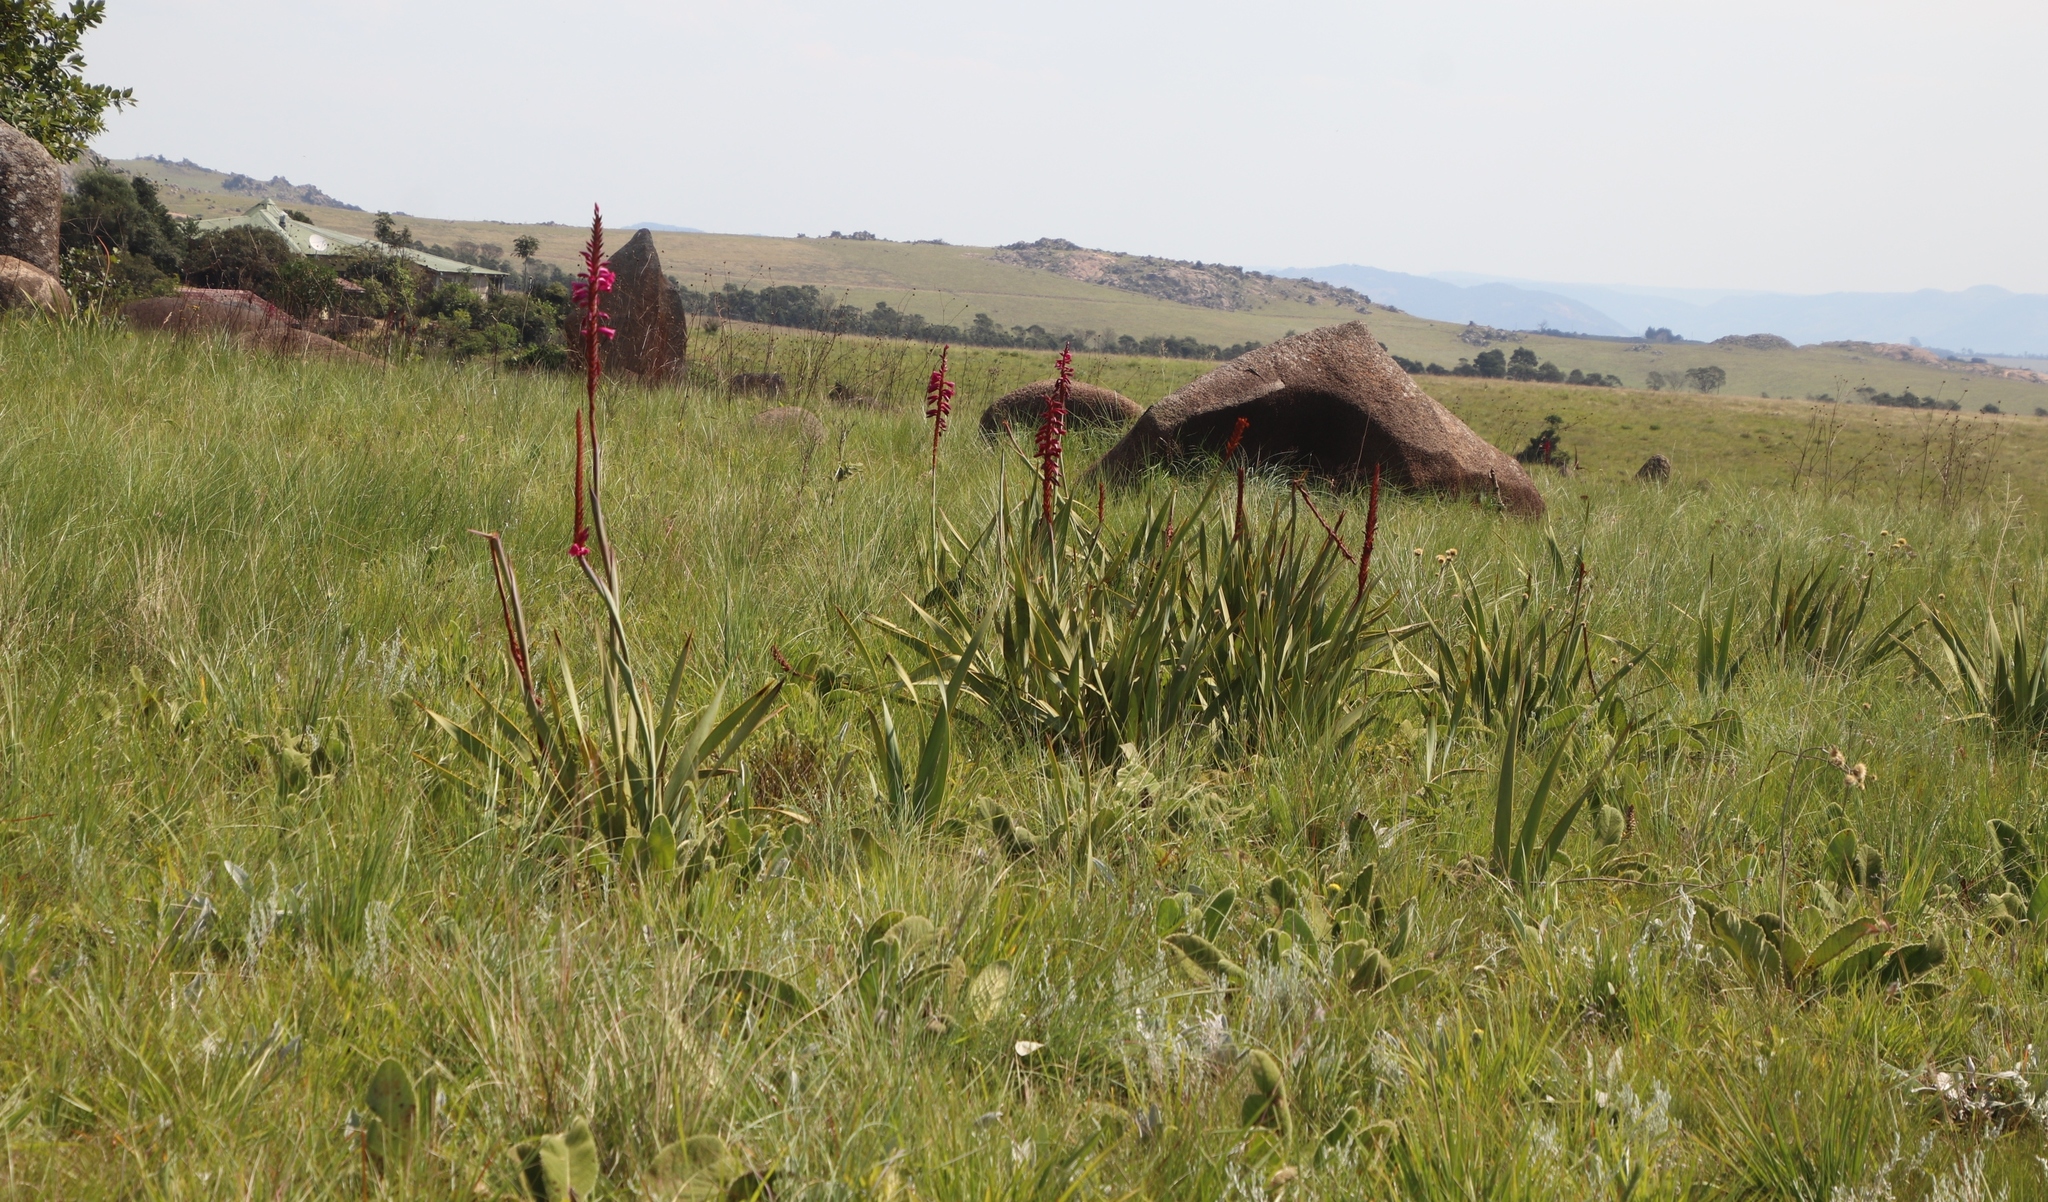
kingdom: Plantae
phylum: Tracheophyta
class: Liliopsida
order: Asparagales
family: Iridaceae
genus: Watsonia
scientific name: Watsonia pulchra
